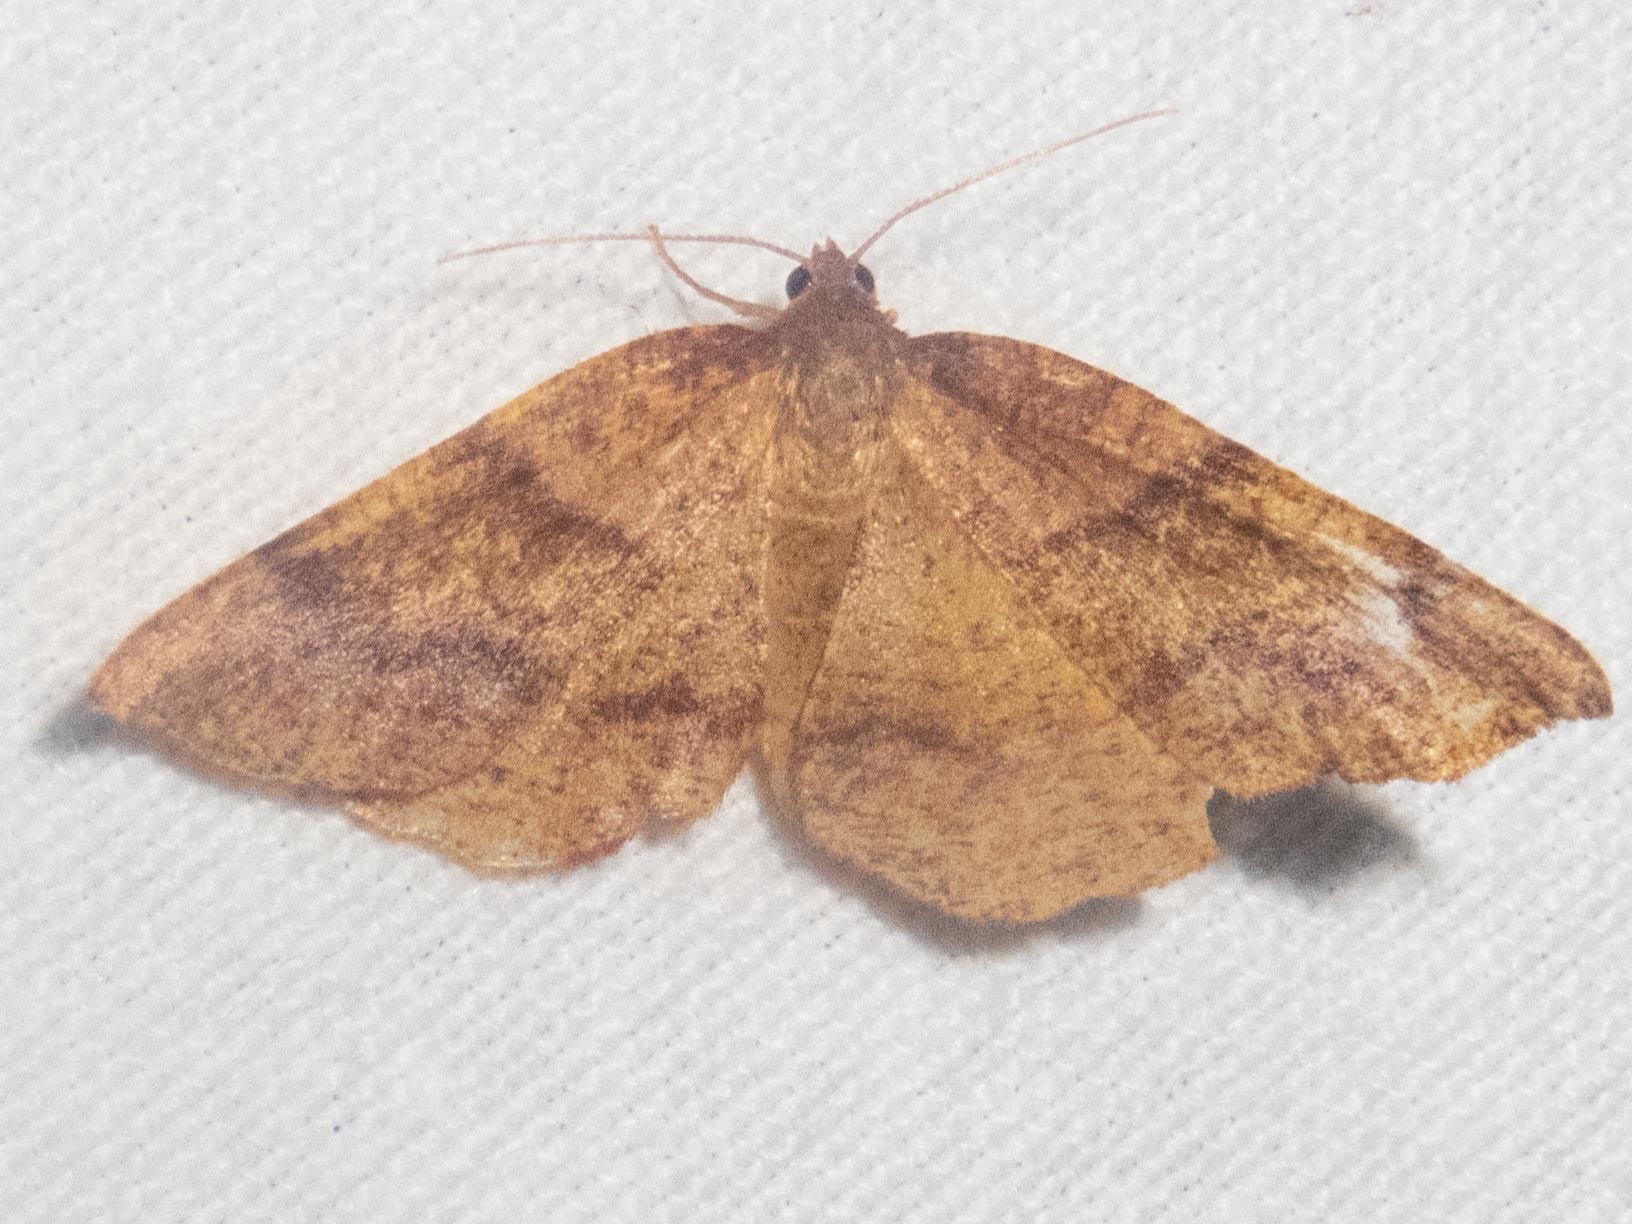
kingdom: Animalia
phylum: Arthropoda
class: Insecta
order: Lepidoptera
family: Geometridae
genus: Plagodis
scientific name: Plagodis pulveraria
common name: Barred umber
